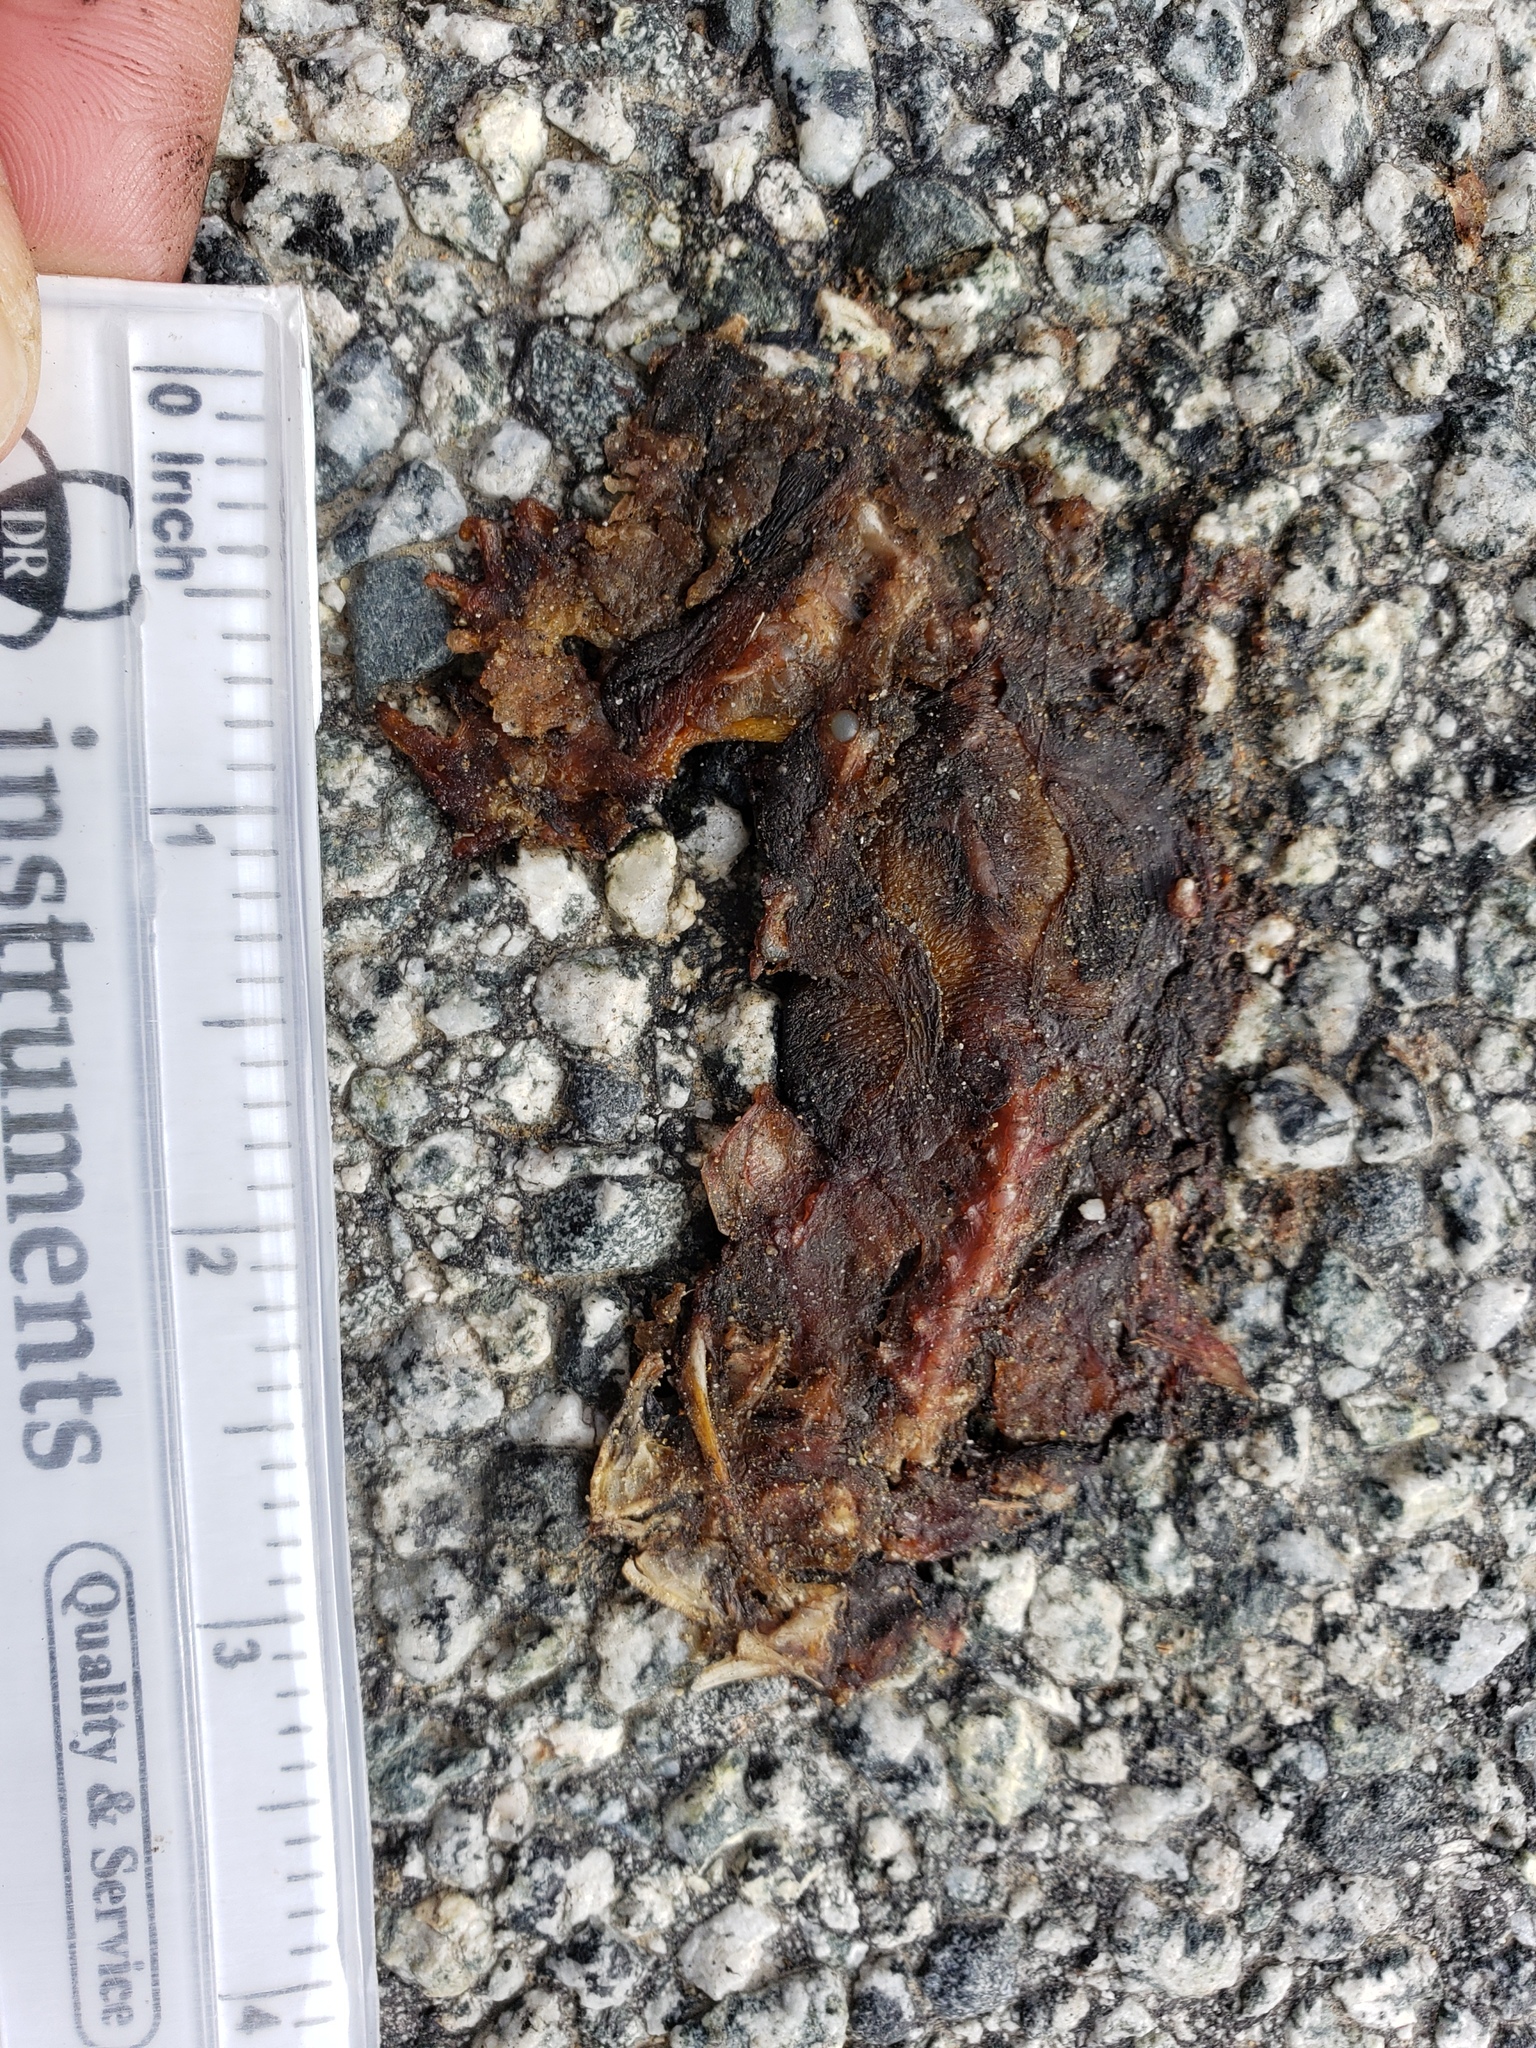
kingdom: Animalia
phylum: Chordata
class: Amphibia
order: Caudata
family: Salamandridae
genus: Taricha
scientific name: Taricha
